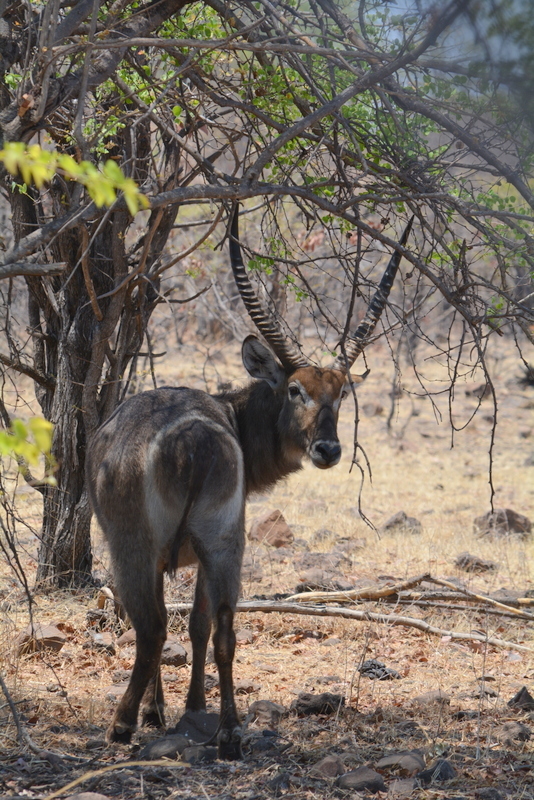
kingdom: Animalia
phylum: Chordata
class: Mammalia
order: Artiodactyla
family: Bovidae
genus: Kobus
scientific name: Kobus ellipsiprymnus
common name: Waterbuck
